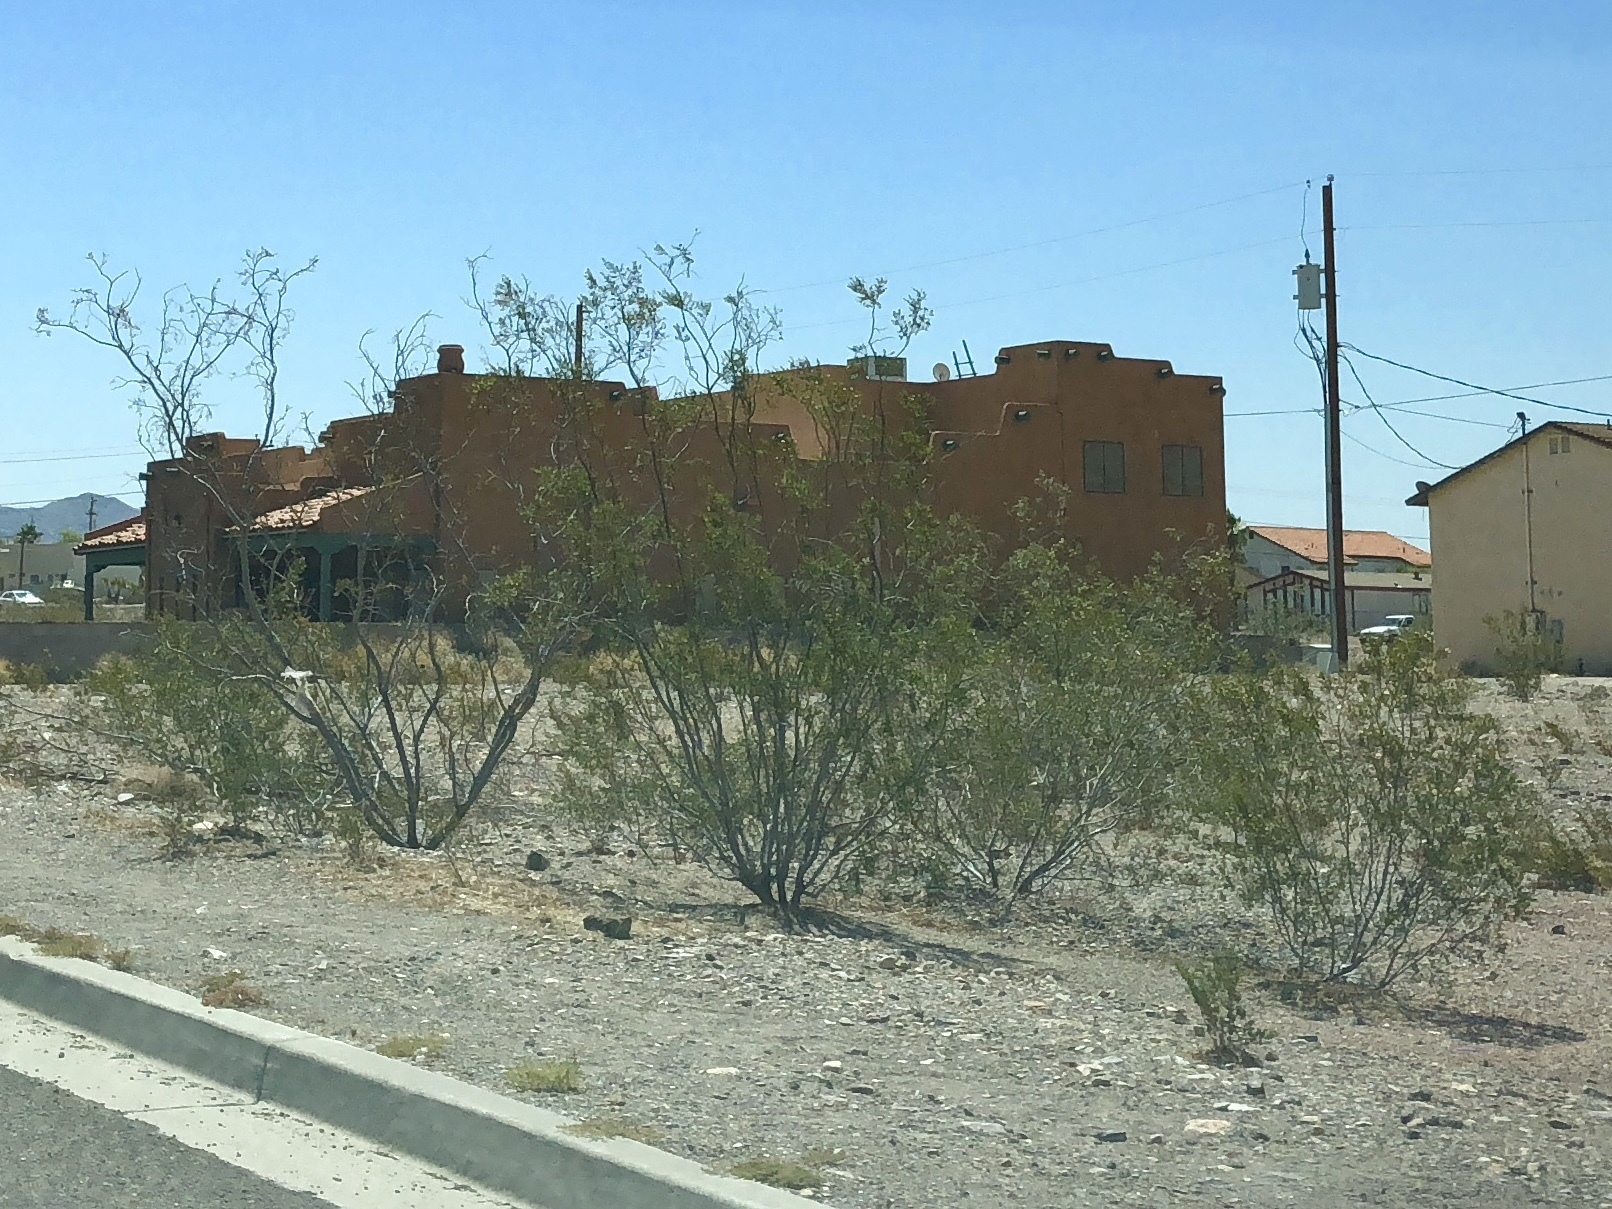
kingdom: Plantae
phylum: Tracheophyta
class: Magnoliopsida
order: Zygophyllales
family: Zygophyllaceae
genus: Larrea
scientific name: Larrea tridentata
